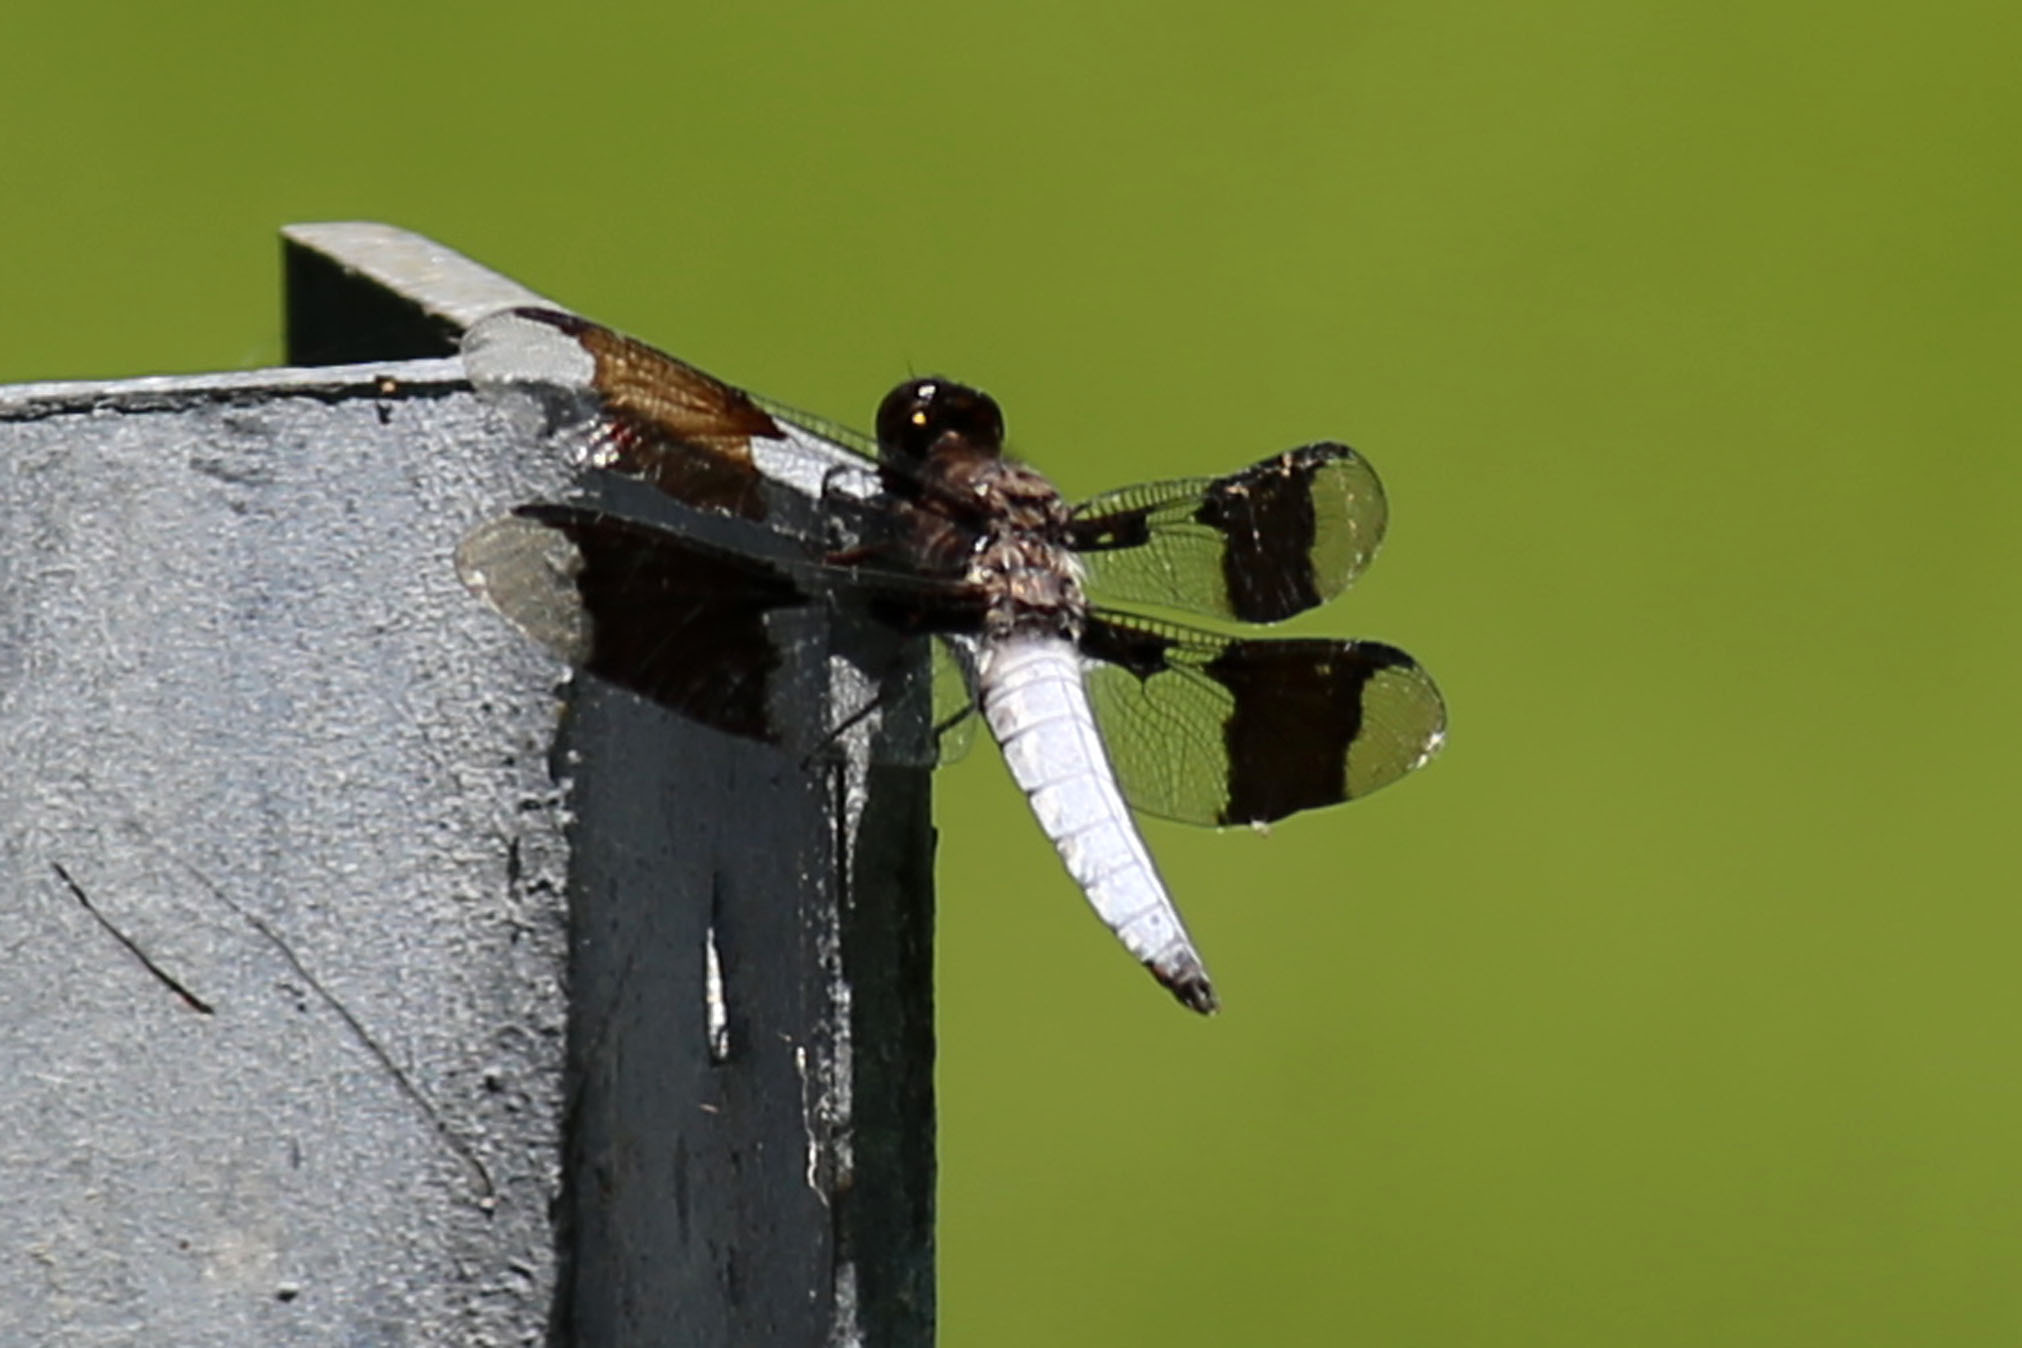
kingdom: Animalia
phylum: Arthropoda
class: Insecta
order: Odonata
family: Libellulidae
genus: Plathemis
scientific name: Plathemis lydia
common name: Common whitetail
